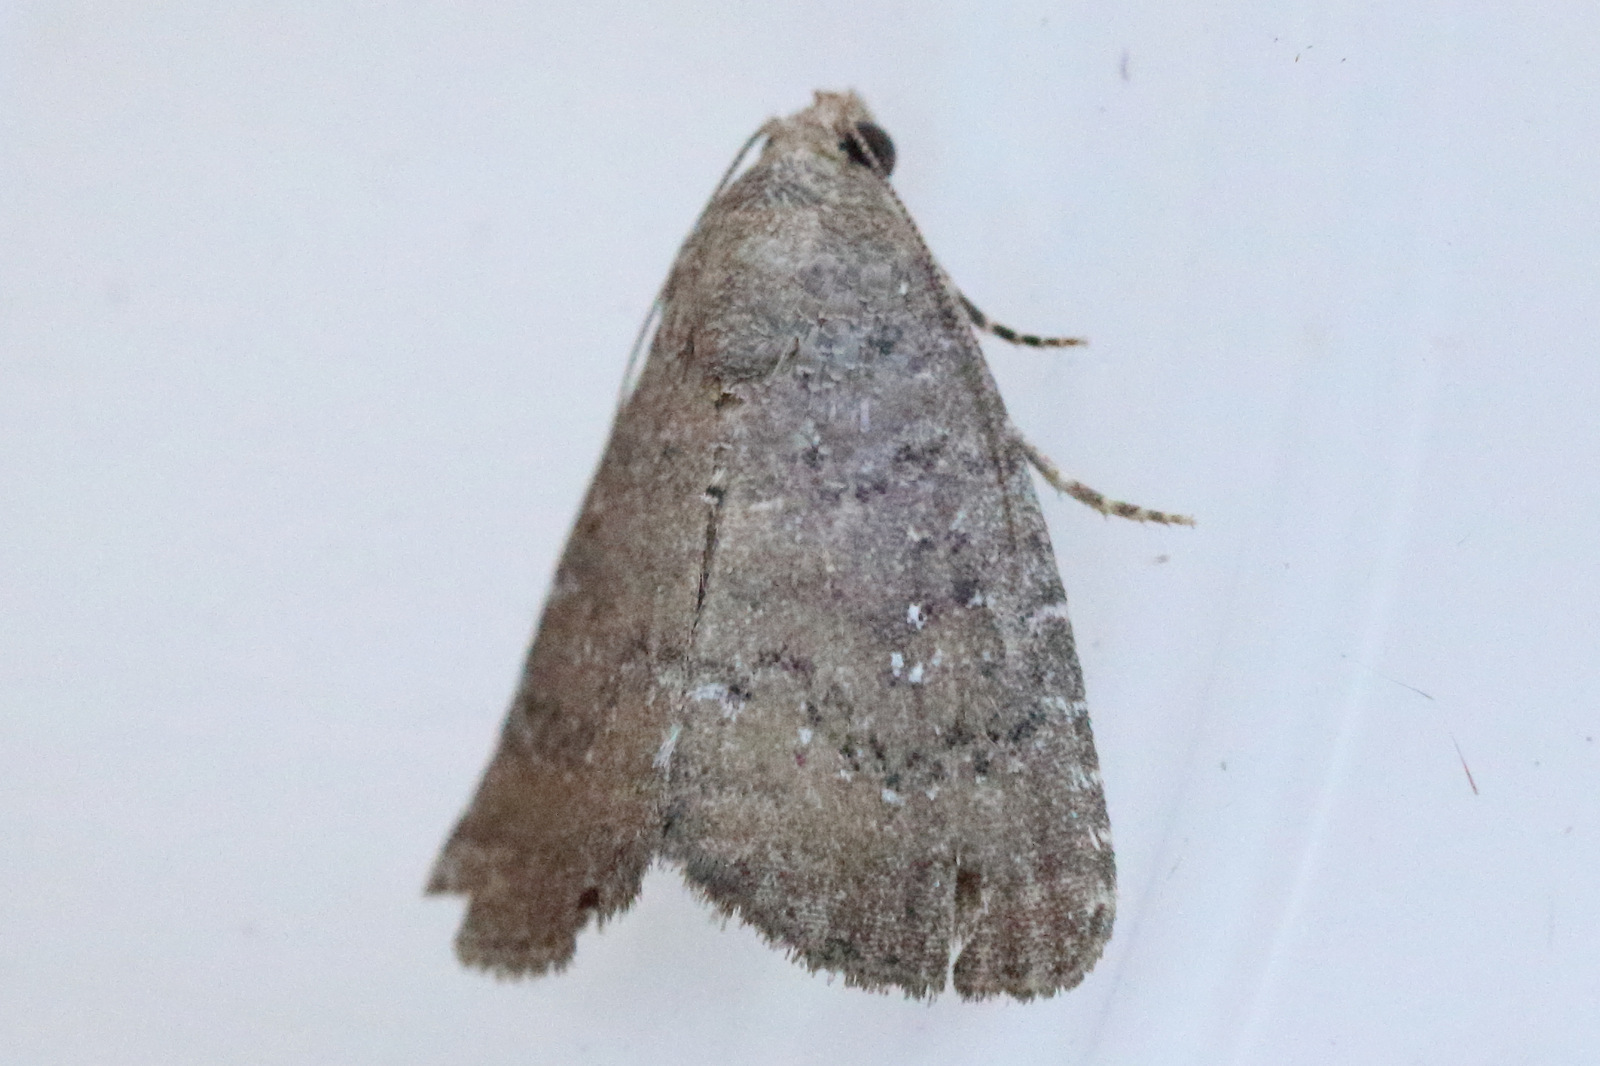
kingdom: Animalia
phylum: Arthropoda
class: Insecta
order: Lepidoptera
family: Noctuidae
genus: Amyna
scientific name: Amyna natalis
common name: Iiima moth
